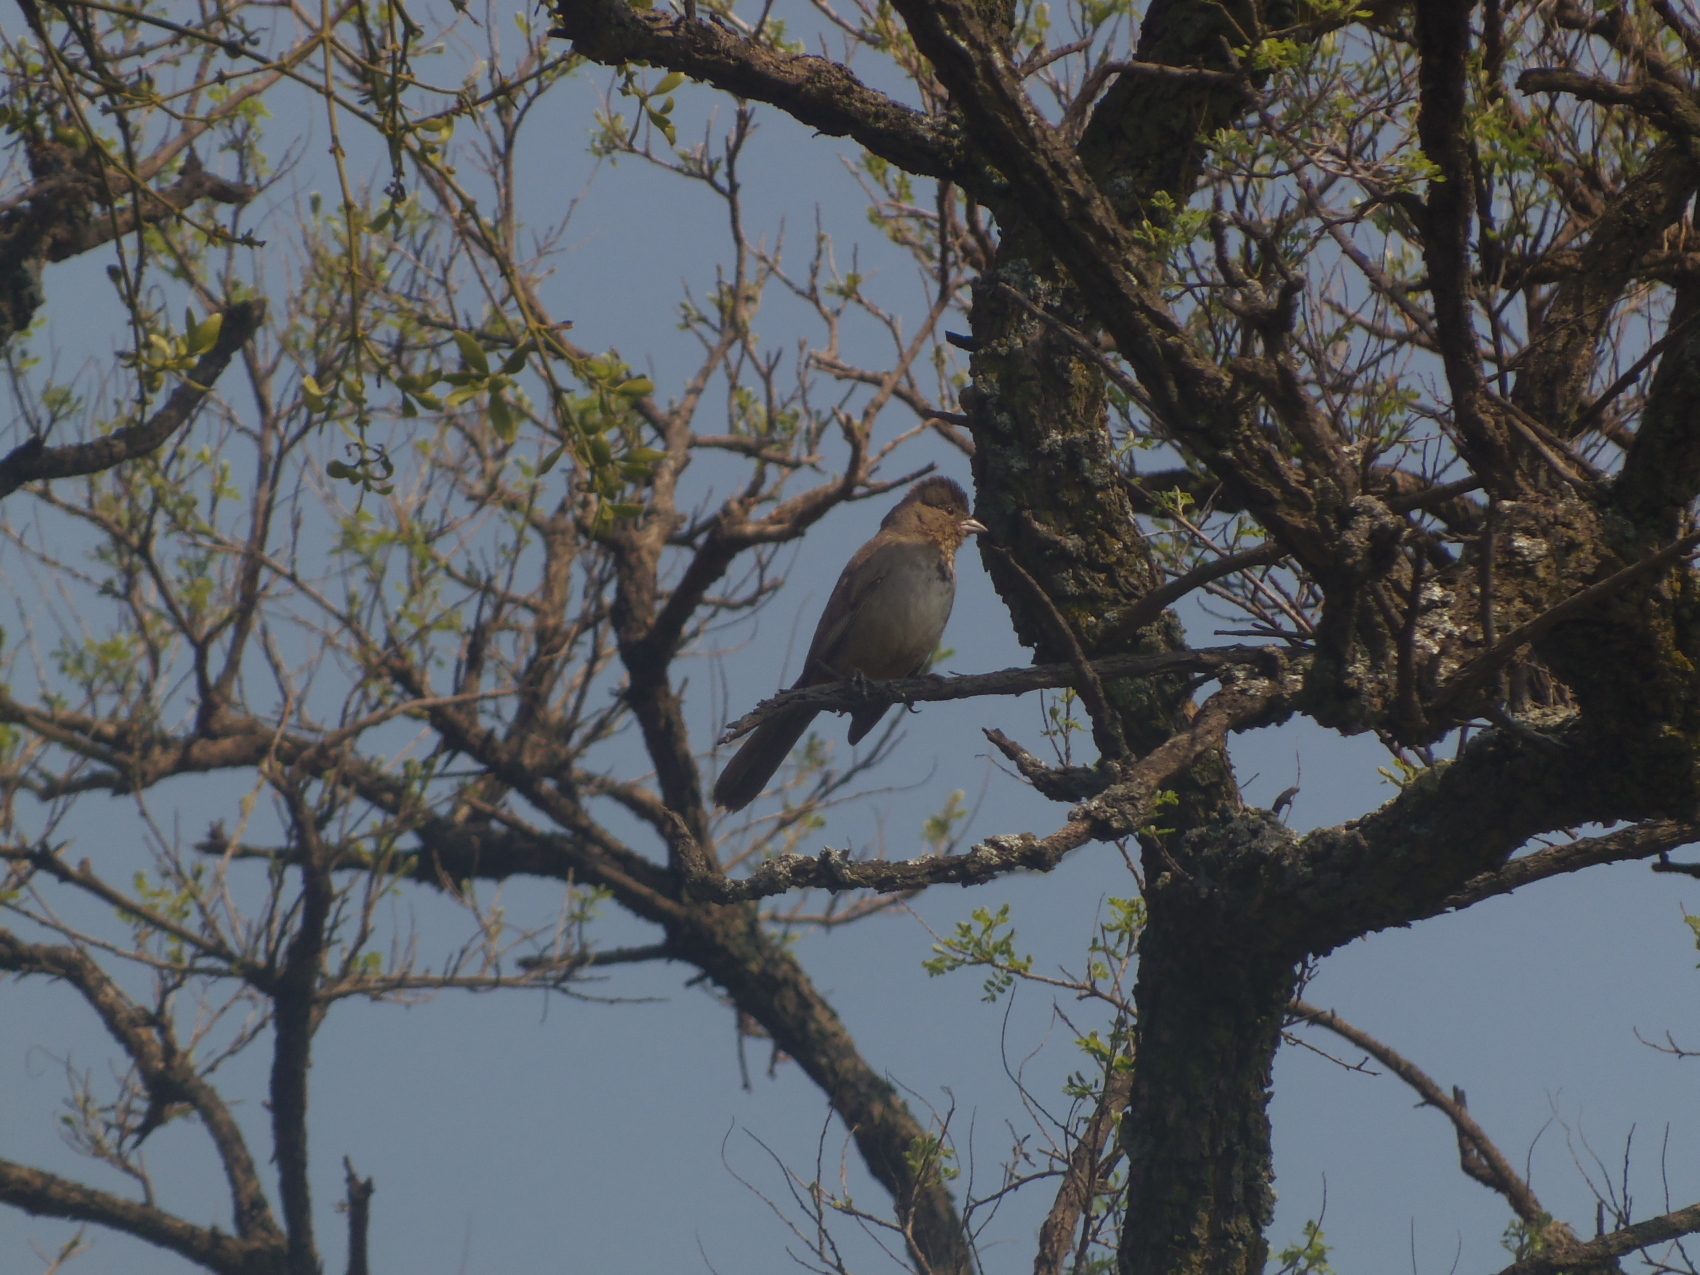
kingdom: Animalia
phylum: Chordata
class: Aves
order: Passeriformes
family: Passerellidae
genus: Melozone
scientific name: Melozone fusca
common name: Canyon towhee
